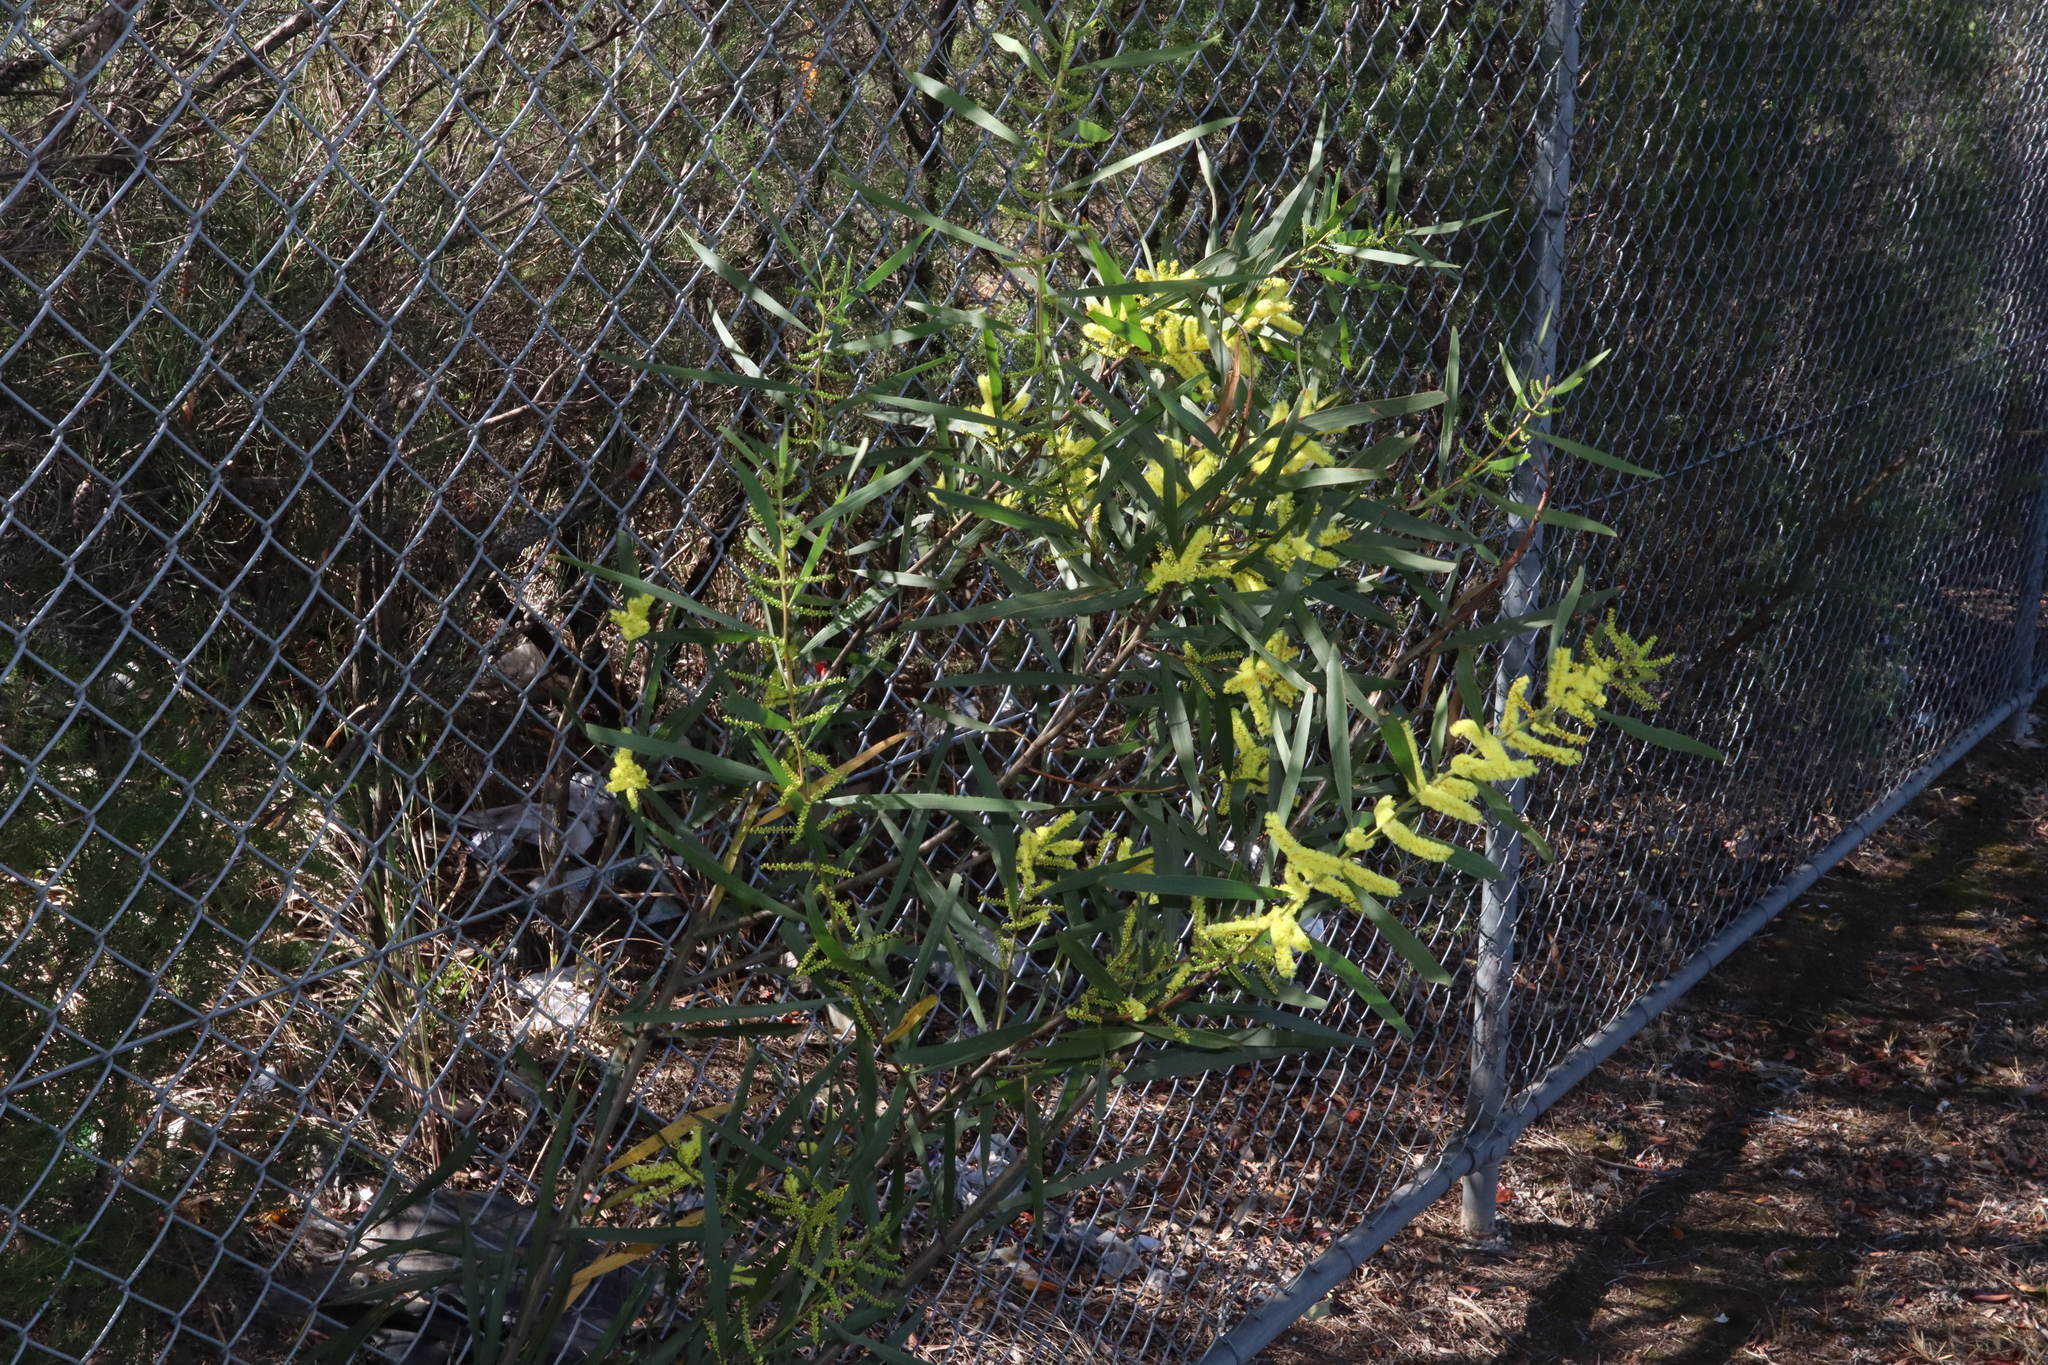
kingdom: Plantae
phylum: Tracheophyta
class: Magnoliopsida
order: Fabales
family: Fabaceae
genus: Acacia
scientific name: Acacia longifolia
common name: Sydney golden wattle
